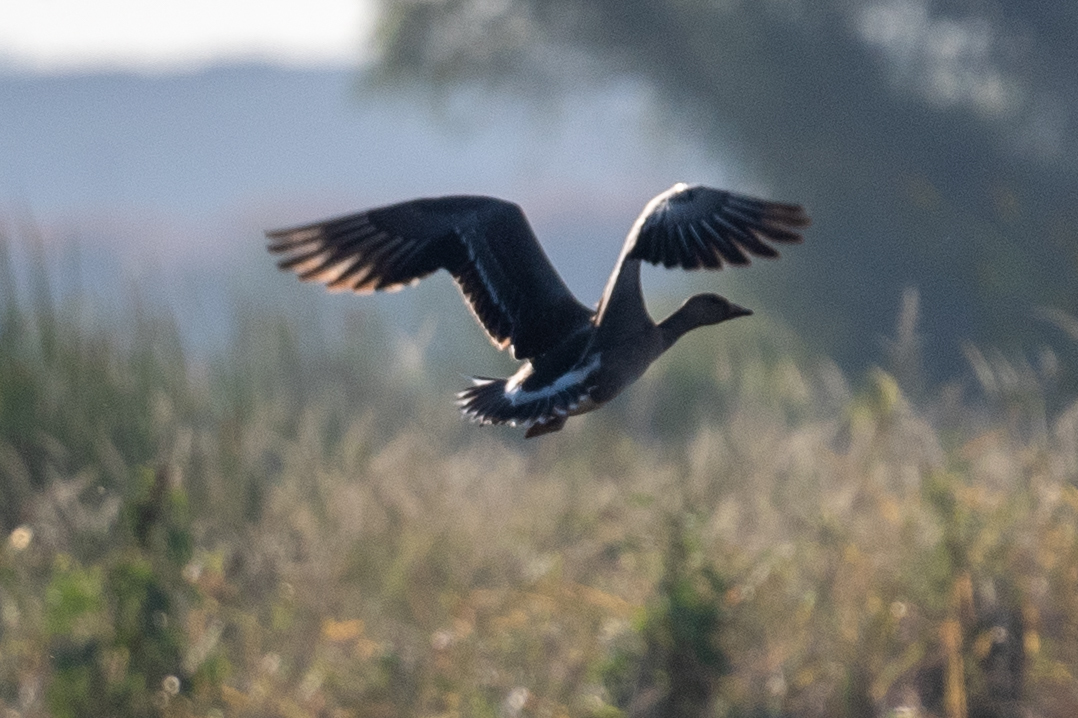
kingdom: Animalia
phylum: Chordata
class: Aves
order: Anseriformes
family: Anatidae
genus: Anser
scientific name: Anser albifrons
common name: Greater white-fronted goose
